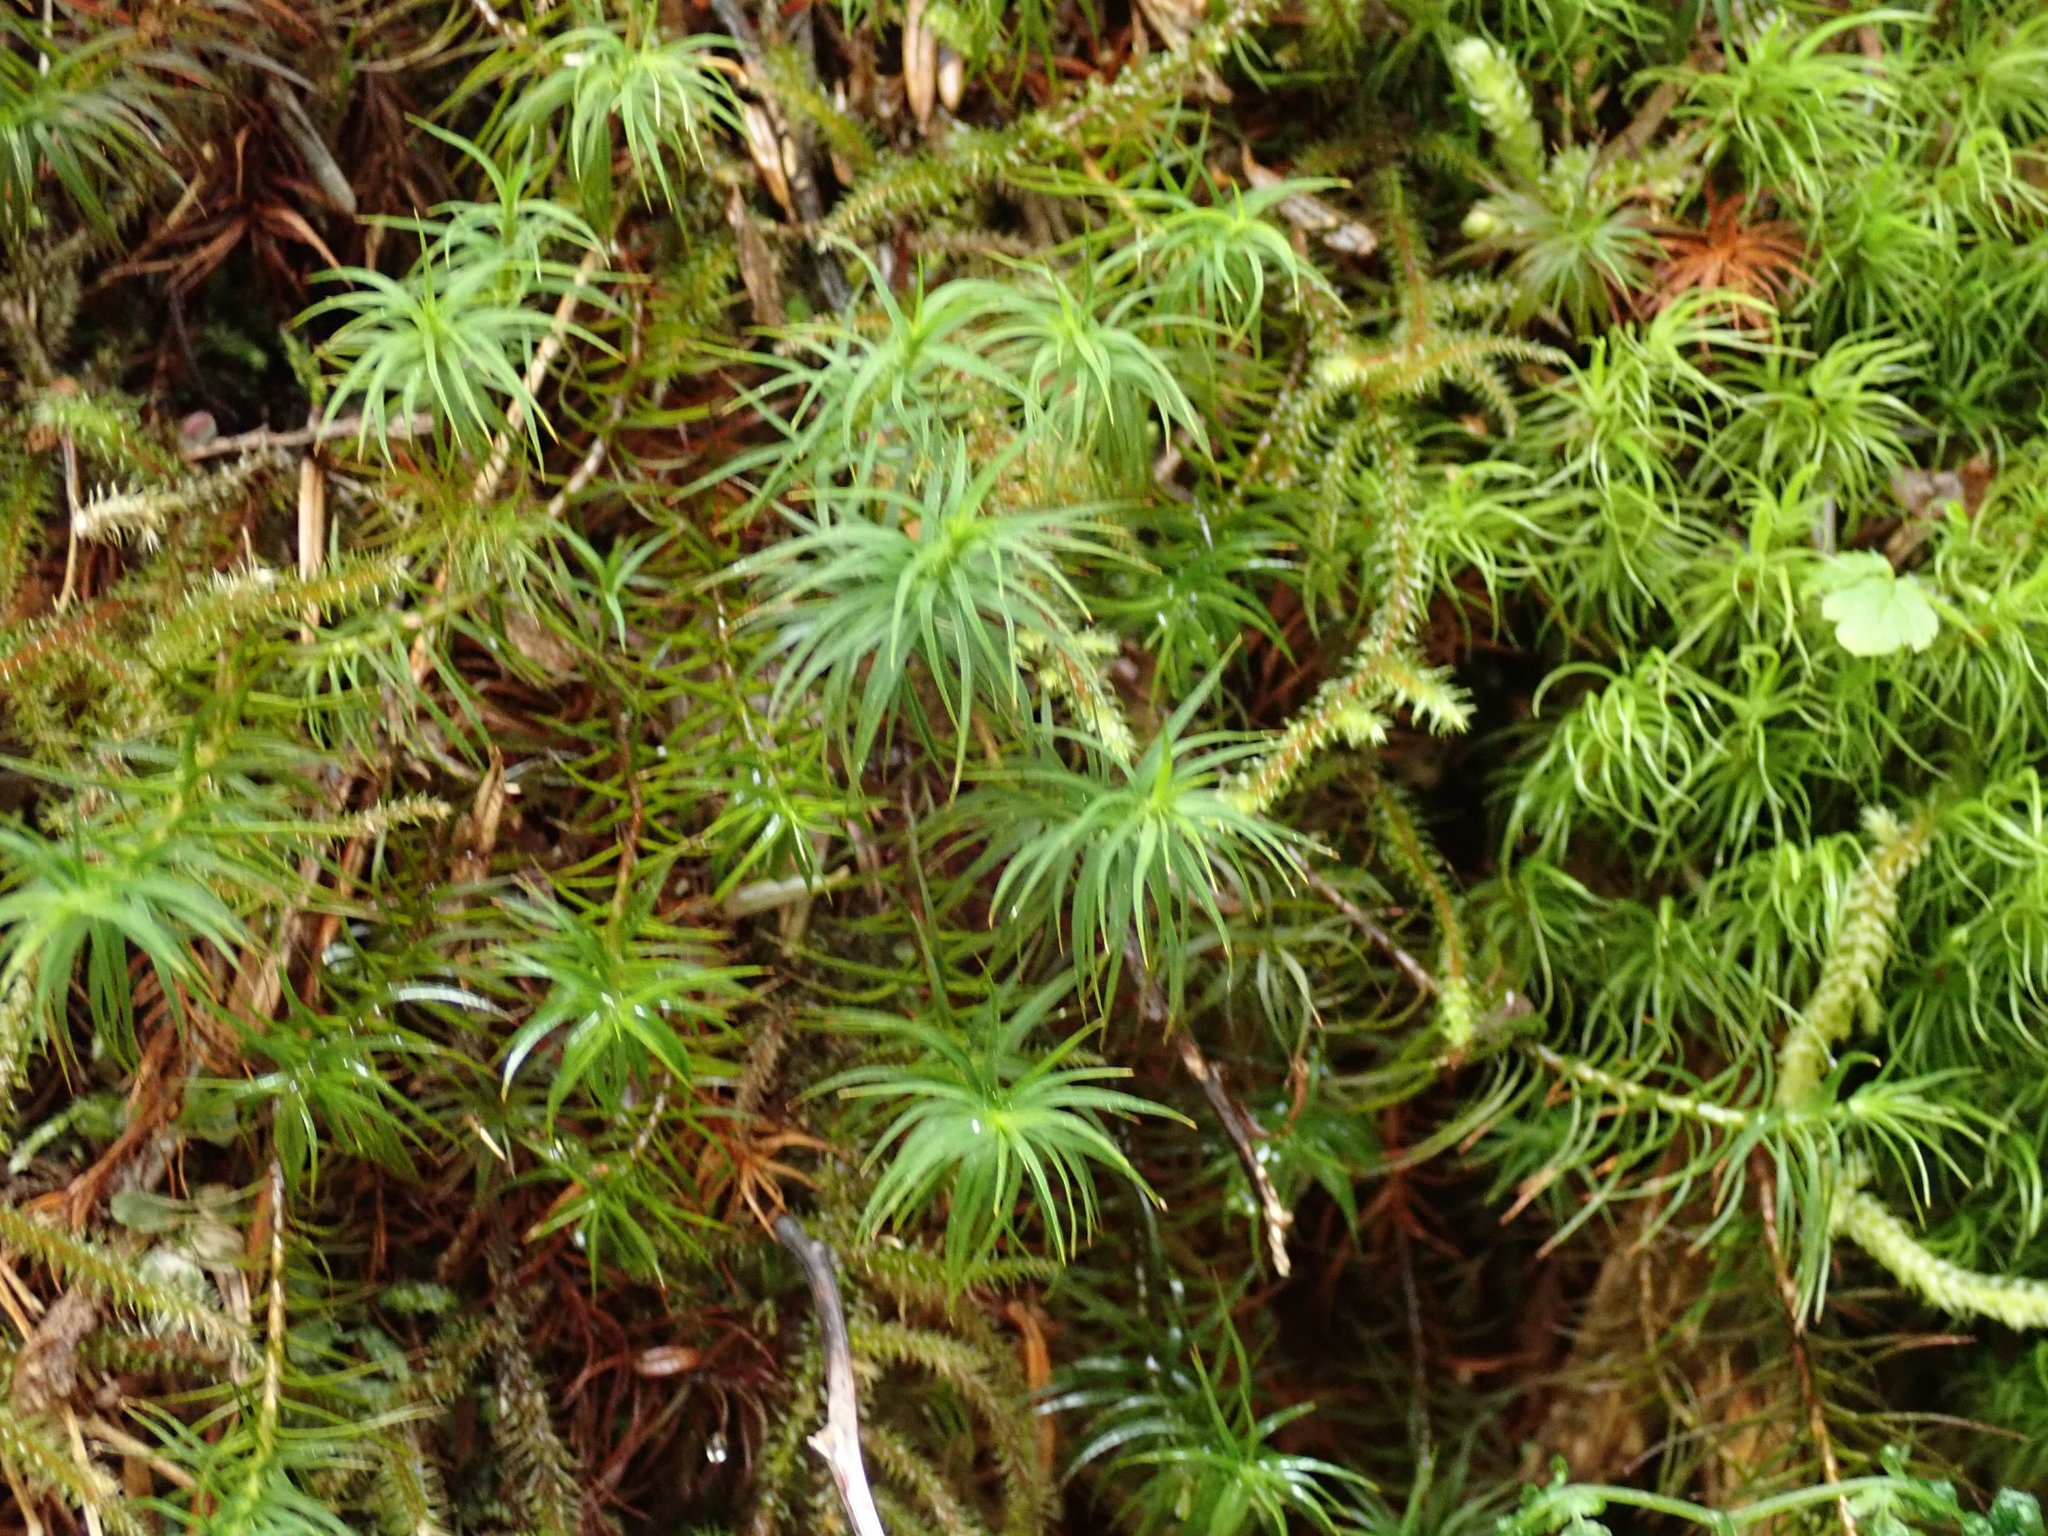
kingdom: Plantae
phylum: Bryophyta
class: Polytrichopsida
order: Polytrichales
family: Polytrichaceae
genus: Polytrichastrum
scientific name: Polytrichastrum alpinum
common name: Alpine haircap
